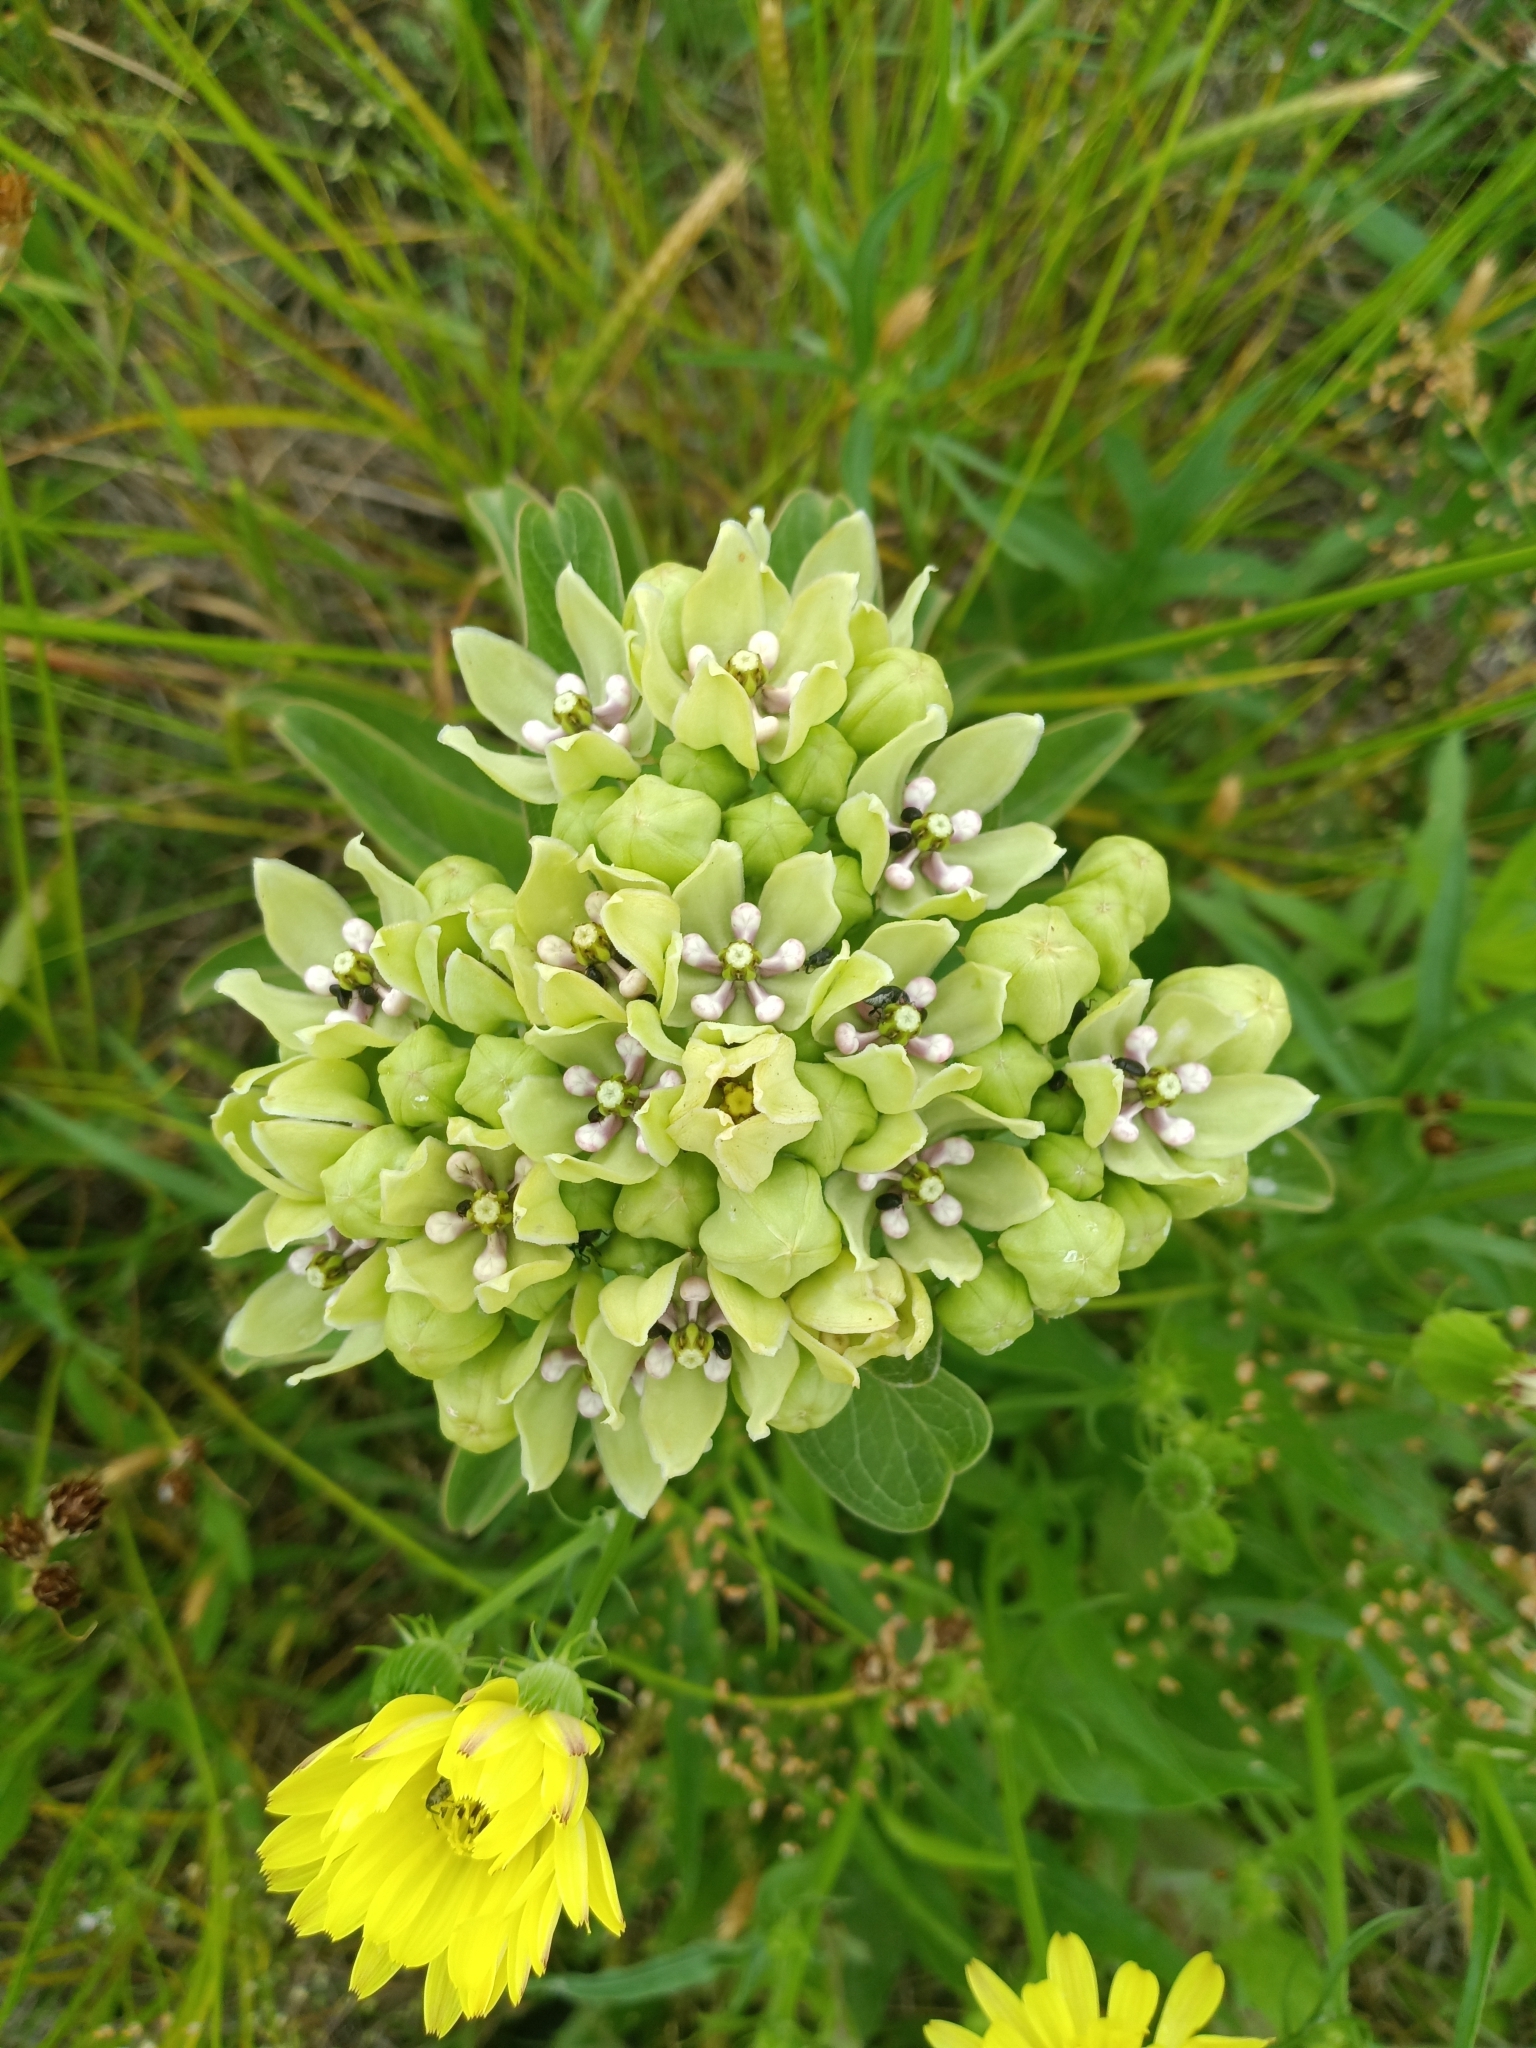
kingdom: Plantae
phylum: Tracheophyta
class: Magnoliopsida
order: Gentianales
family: Apocynaceae
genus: Asclepias
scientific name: Asclepias viridis
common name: Antelope-horns
